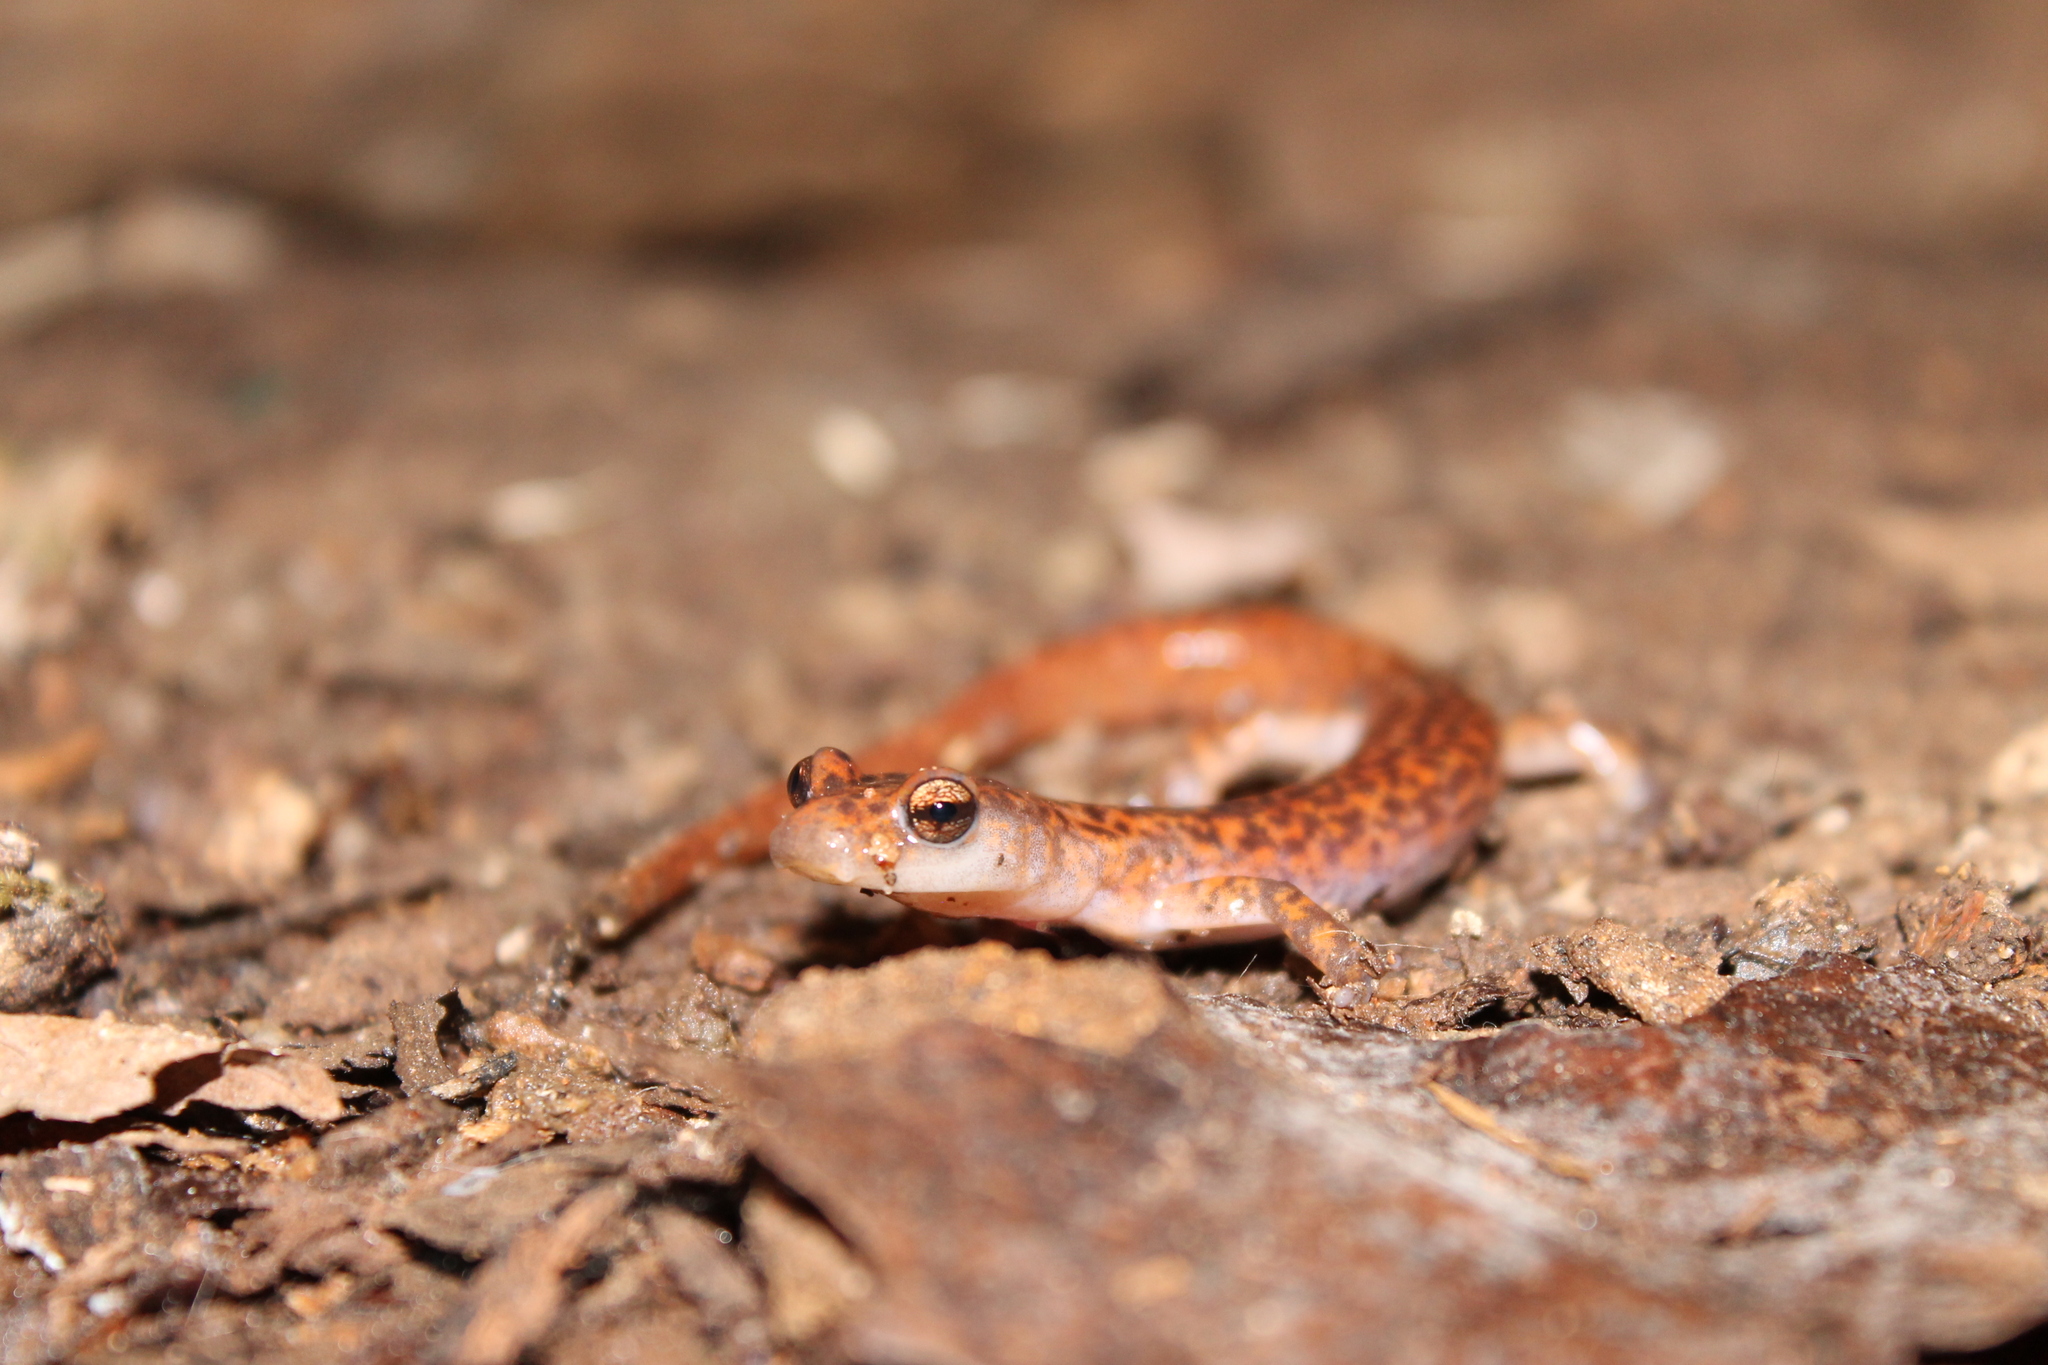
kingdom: Animalia
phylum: Chordata
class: Amphibia
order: Caudata
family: Plethodontidae
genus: Eurycea
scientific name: Eurycea lucifuga
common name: Cave salamander
